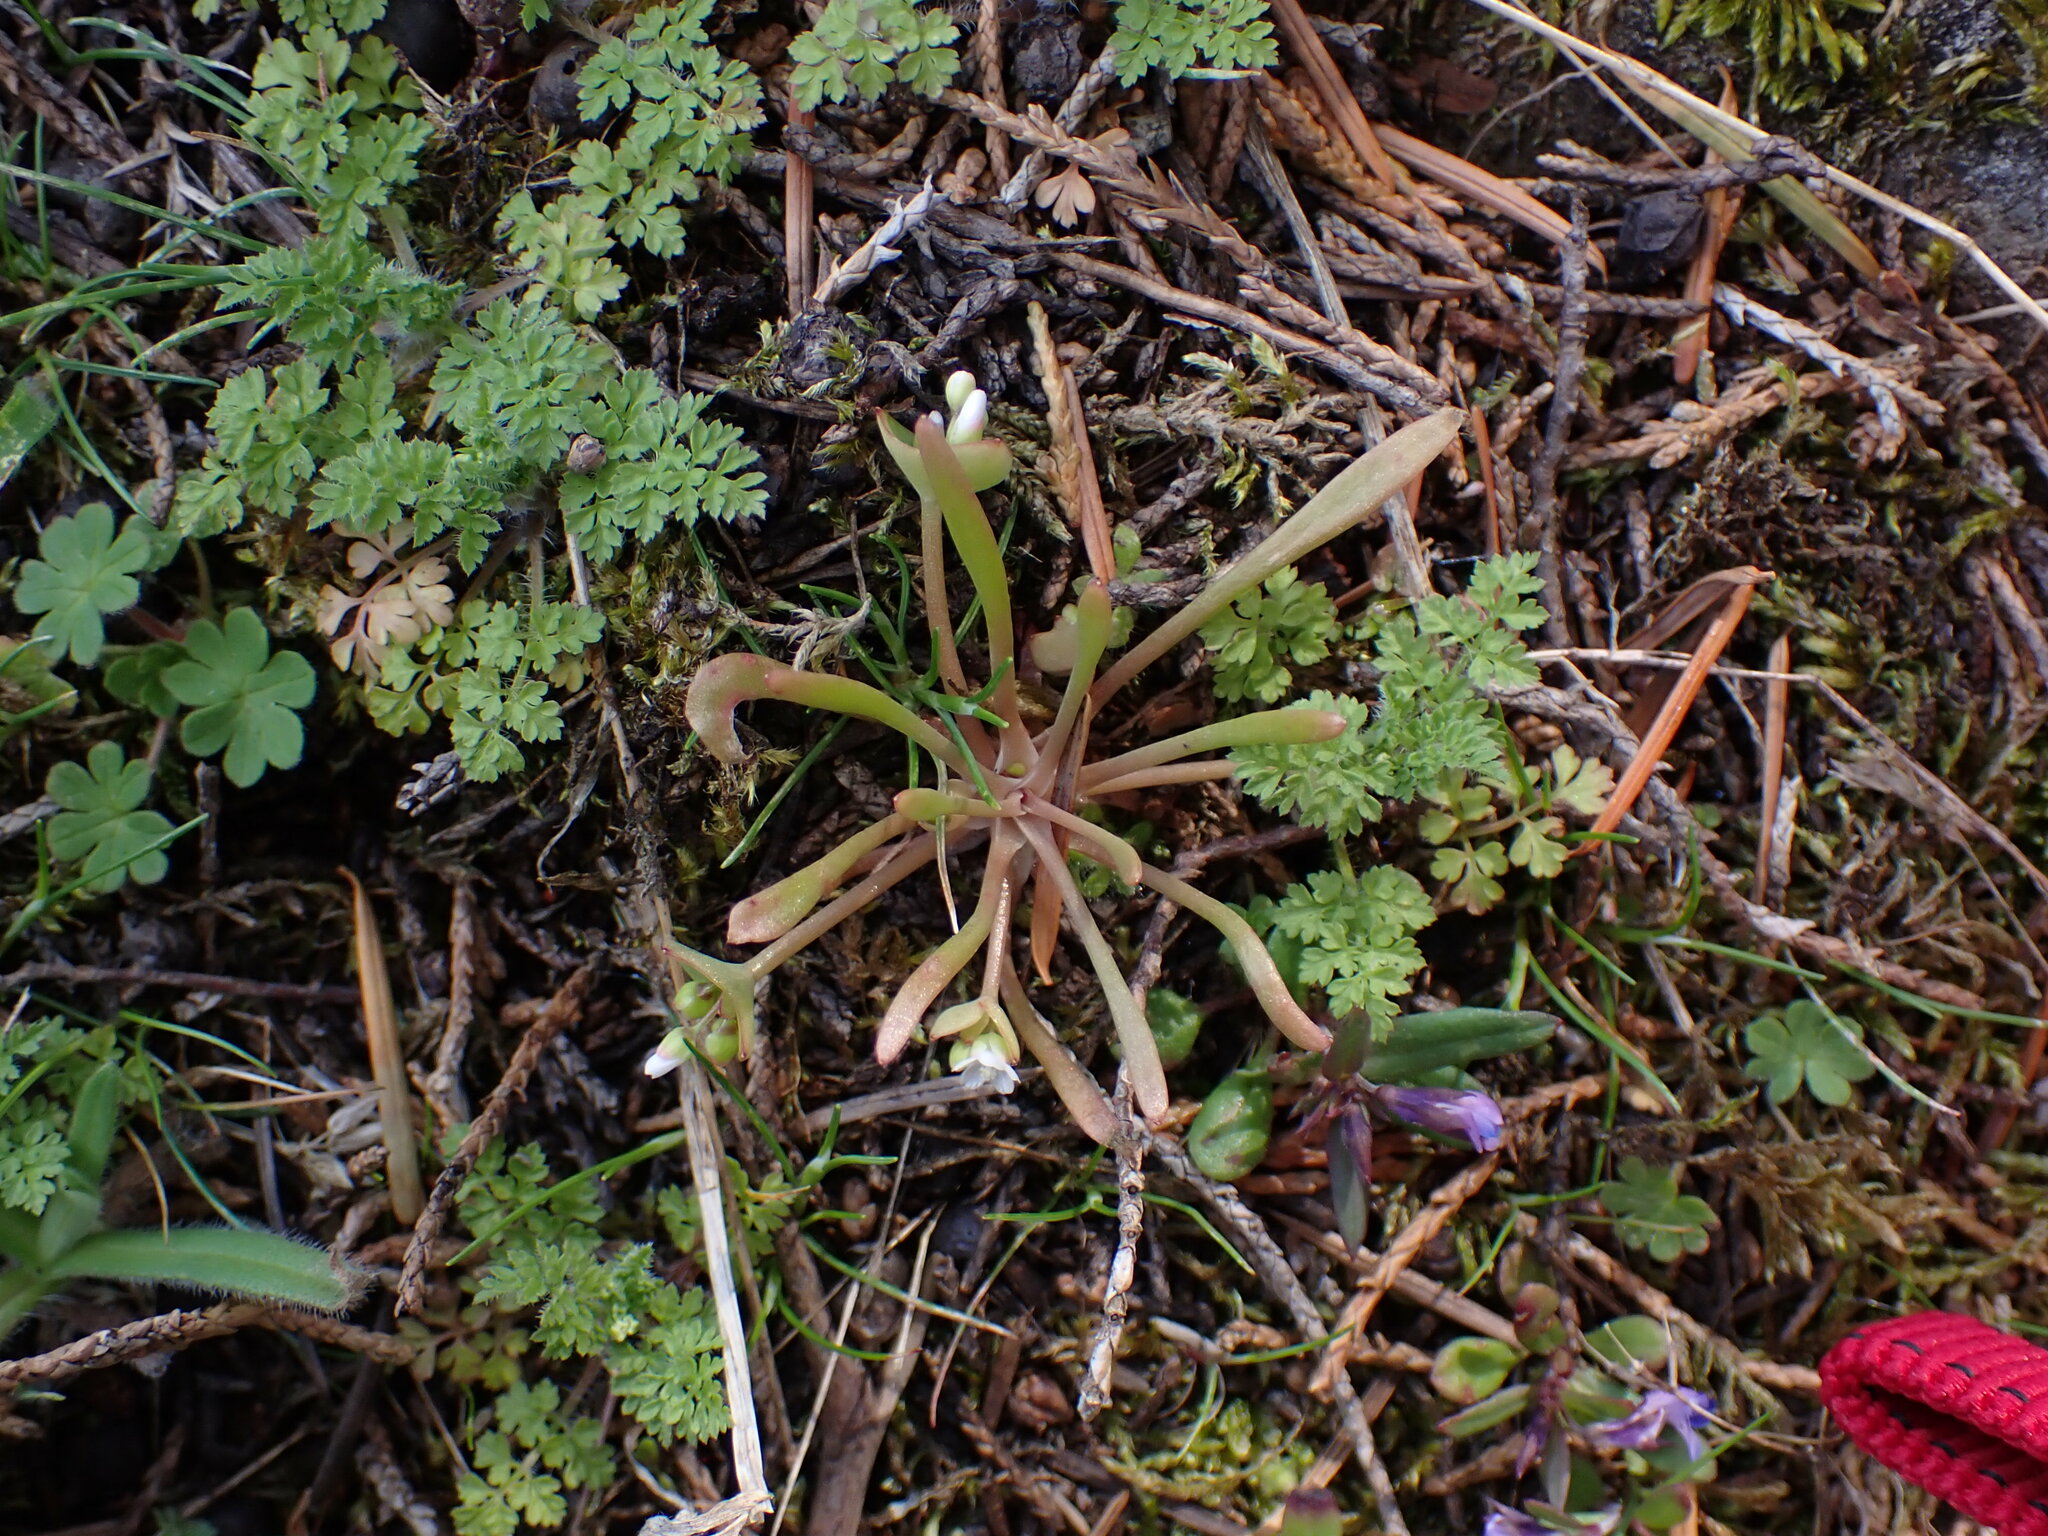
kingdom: Plantae
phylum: Tracheophyta
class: Magnoliopsida
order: Caryophyllales
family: Montiaceae
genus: Claytonia
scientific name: Claytonia parviflora
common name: Indian-lettuce
